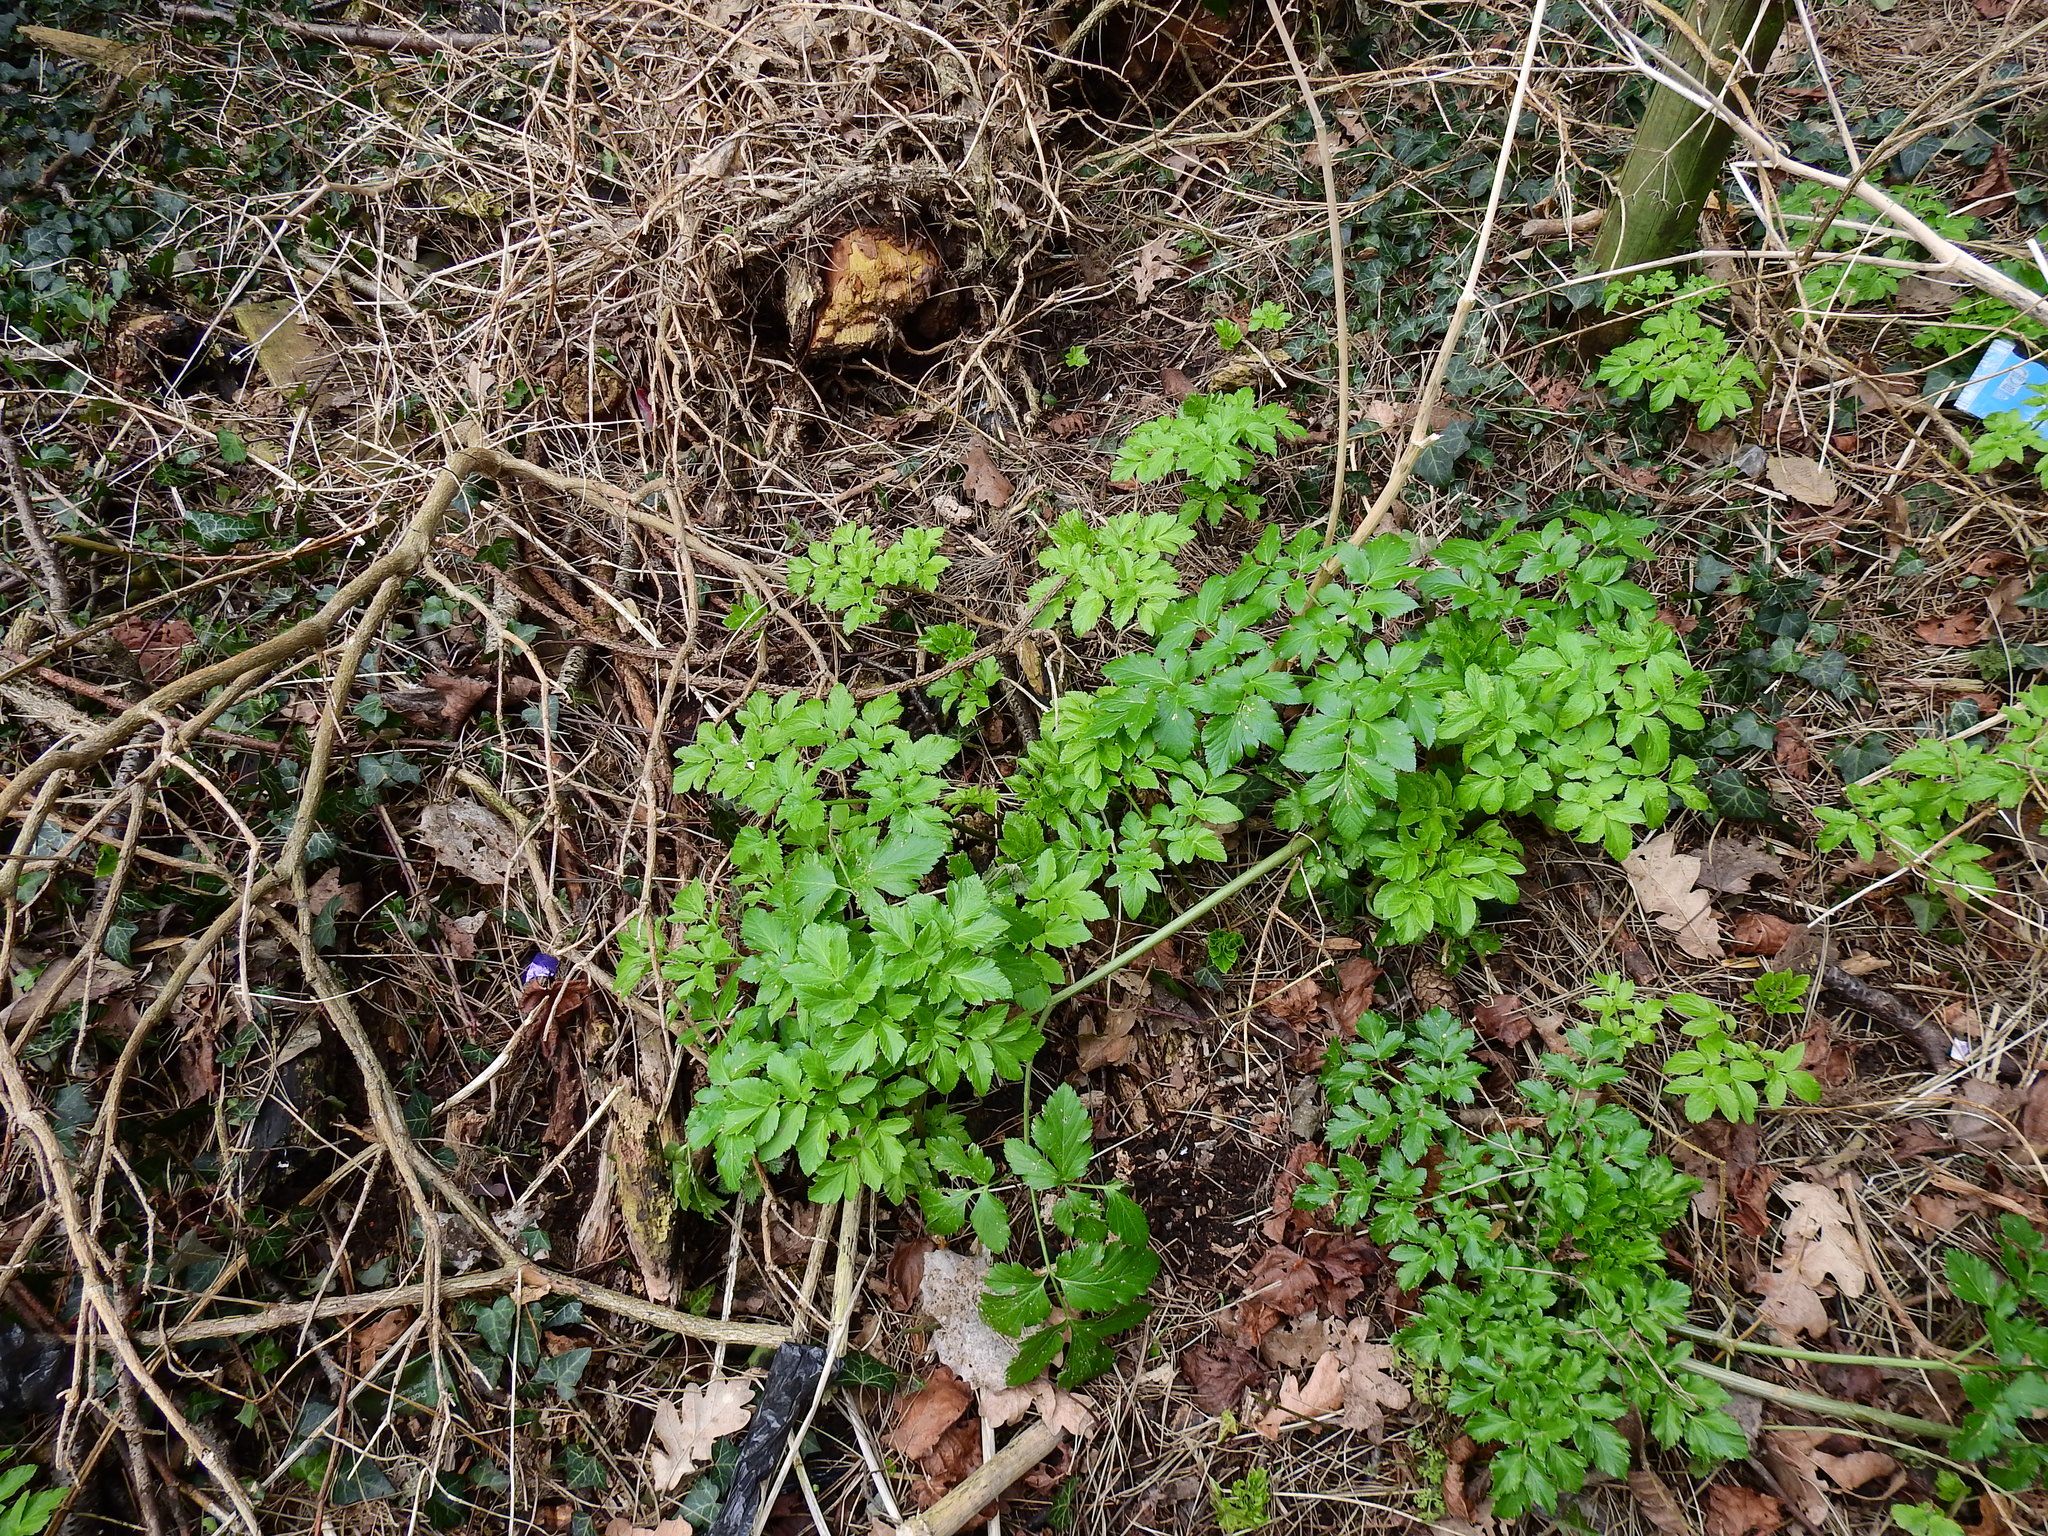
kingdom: Plantae
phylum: Tracheophyta
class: Magnoliopsida
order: Apiales
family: Apiaceae
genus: Smyrnium
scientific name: Smyrnium olusatrum
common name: Alexanders
